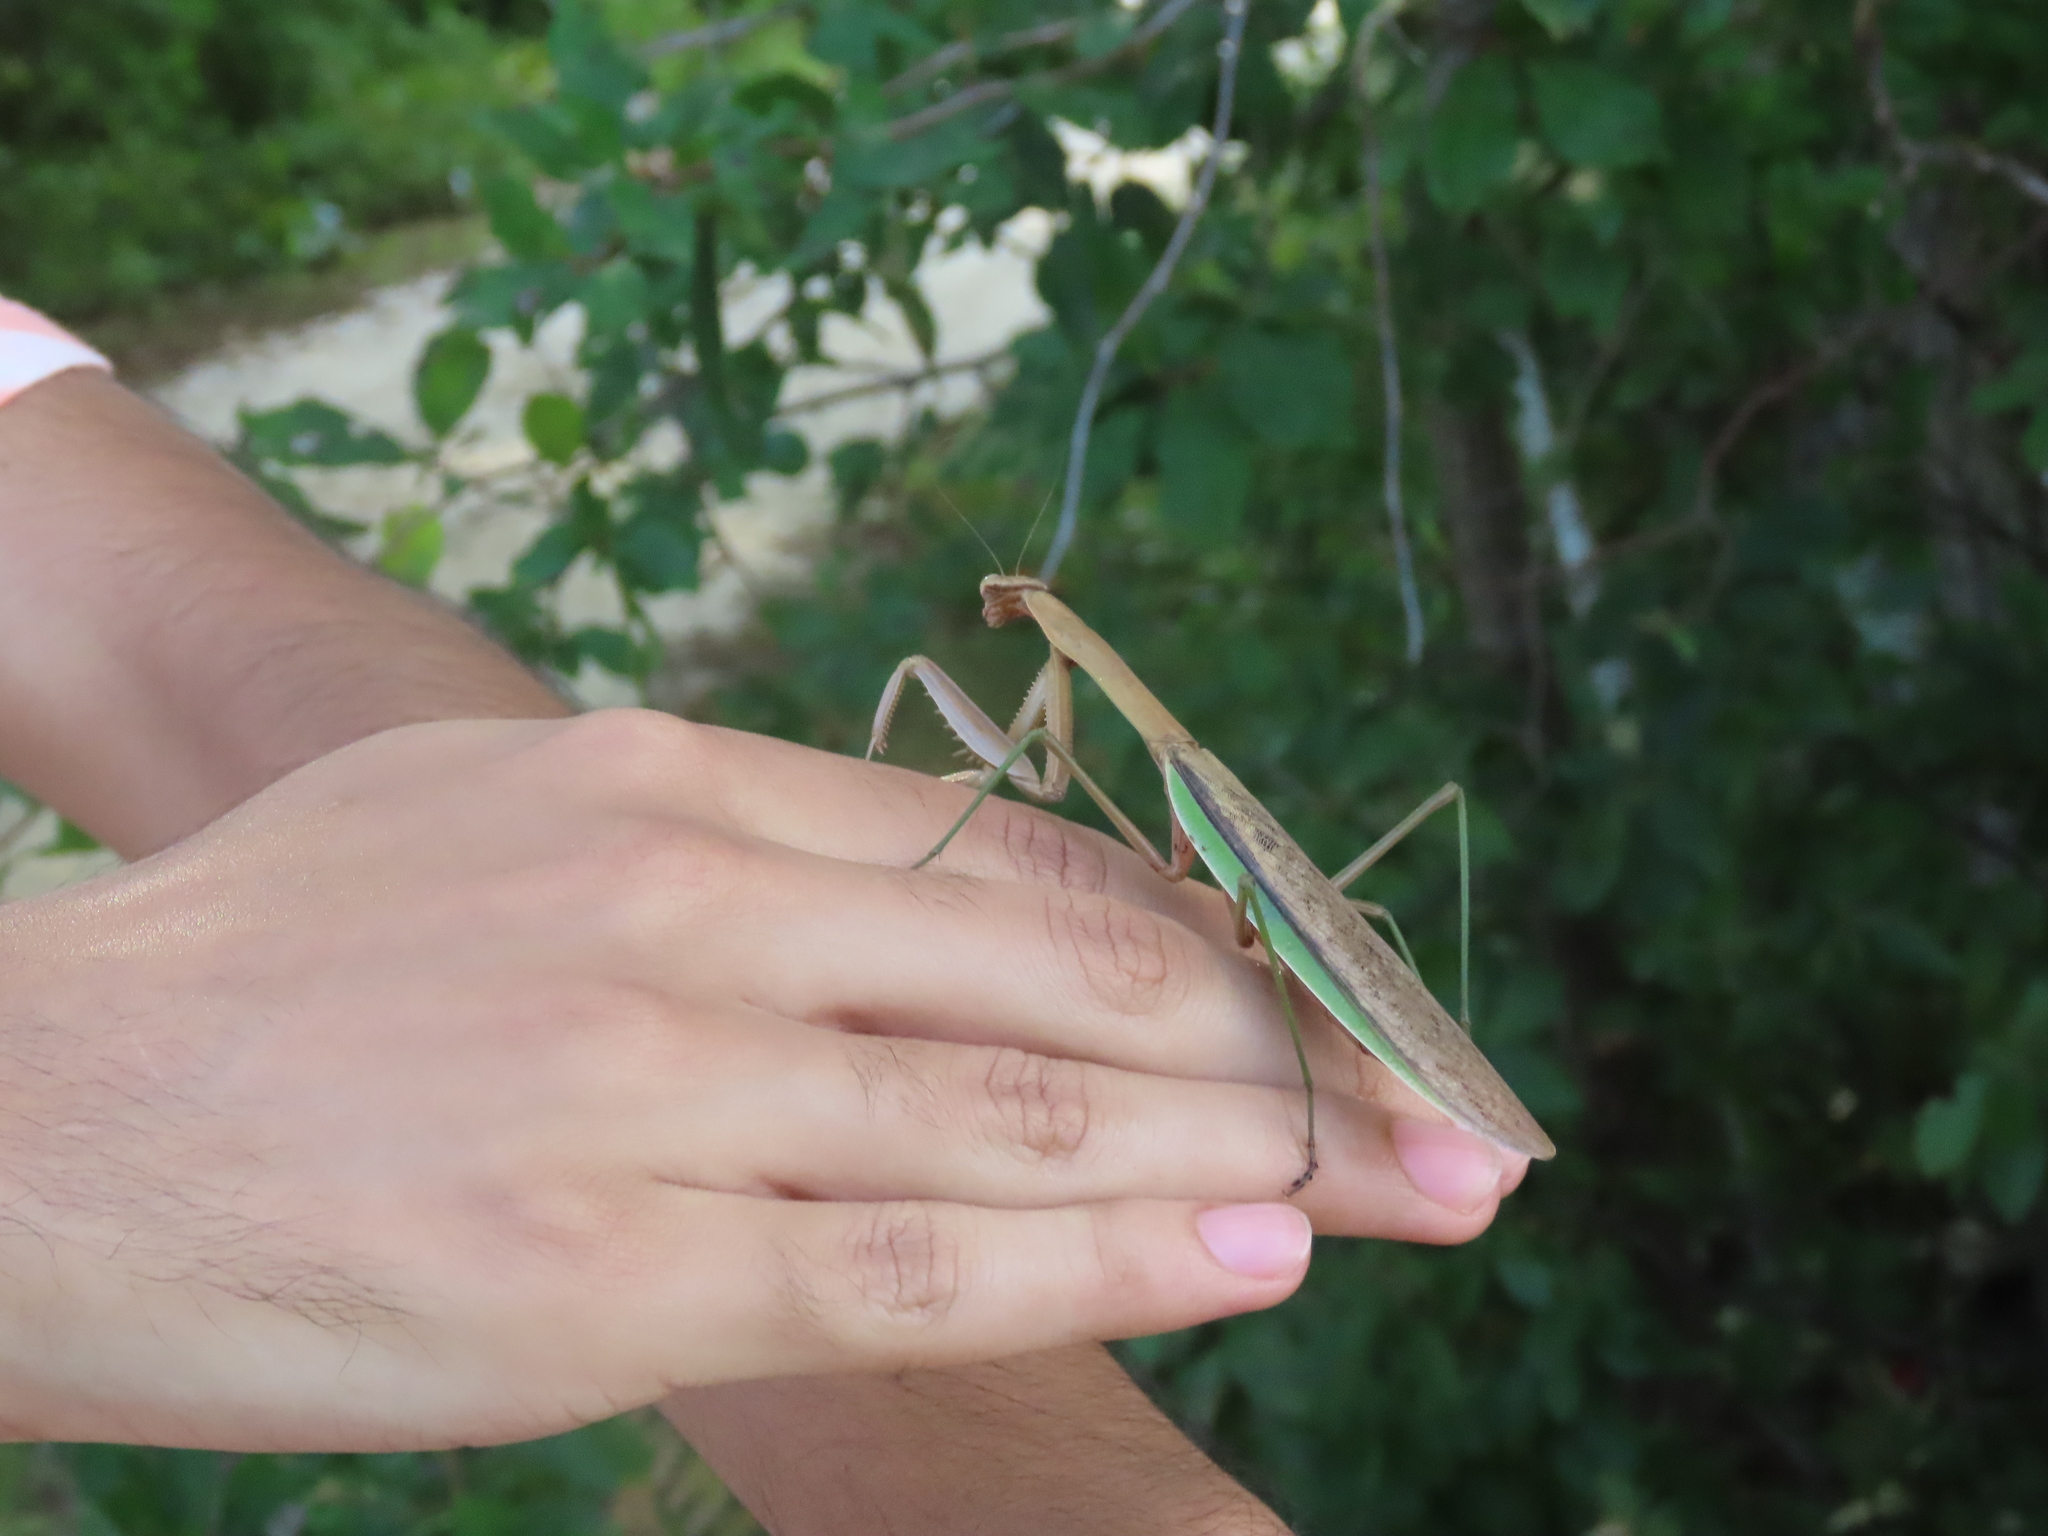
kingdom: Animalia
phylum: Arthropoda
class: Insecta
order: Mantodea
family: Mantidae
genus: Tenodera
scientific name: Tenodera sinensis
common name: Chinese mantis
